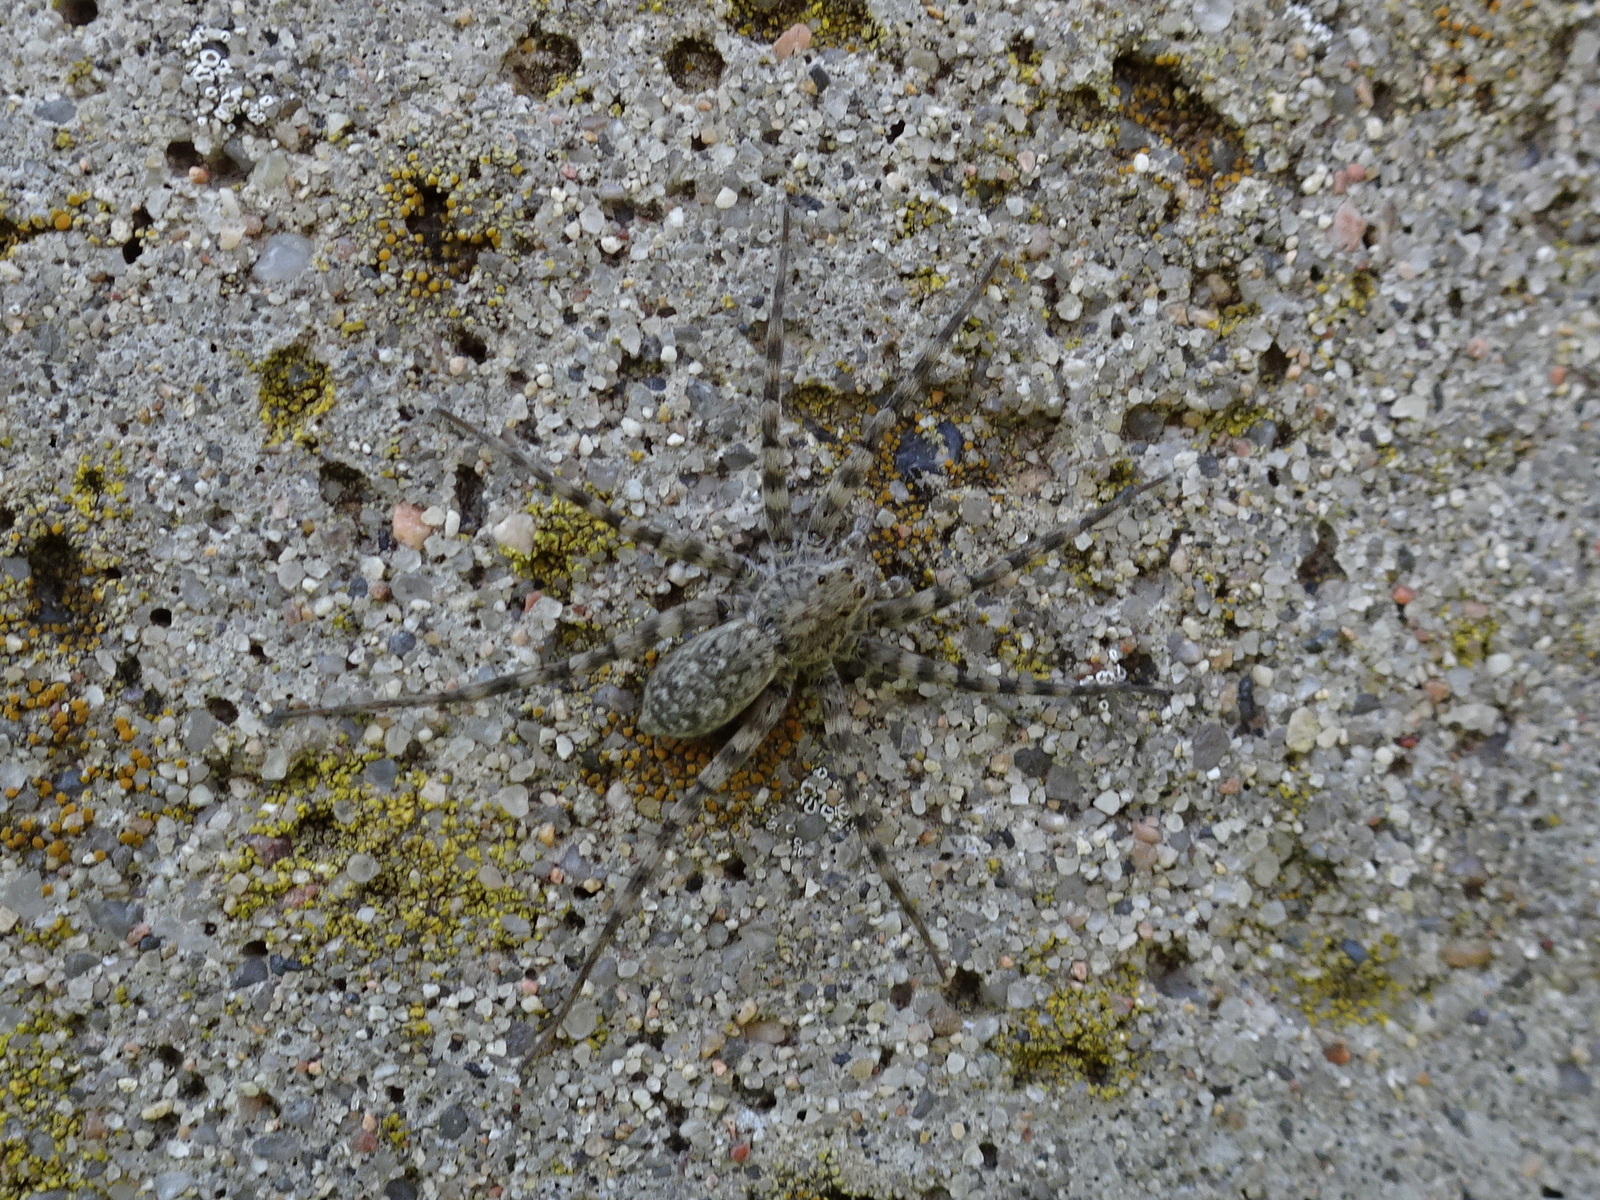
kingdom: Animalia
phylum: Arthropoda
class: Arachnida
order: Araneae
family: Lycosidae
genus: Pardosa
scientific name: Pardosa lapidicina
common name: Stone spider
